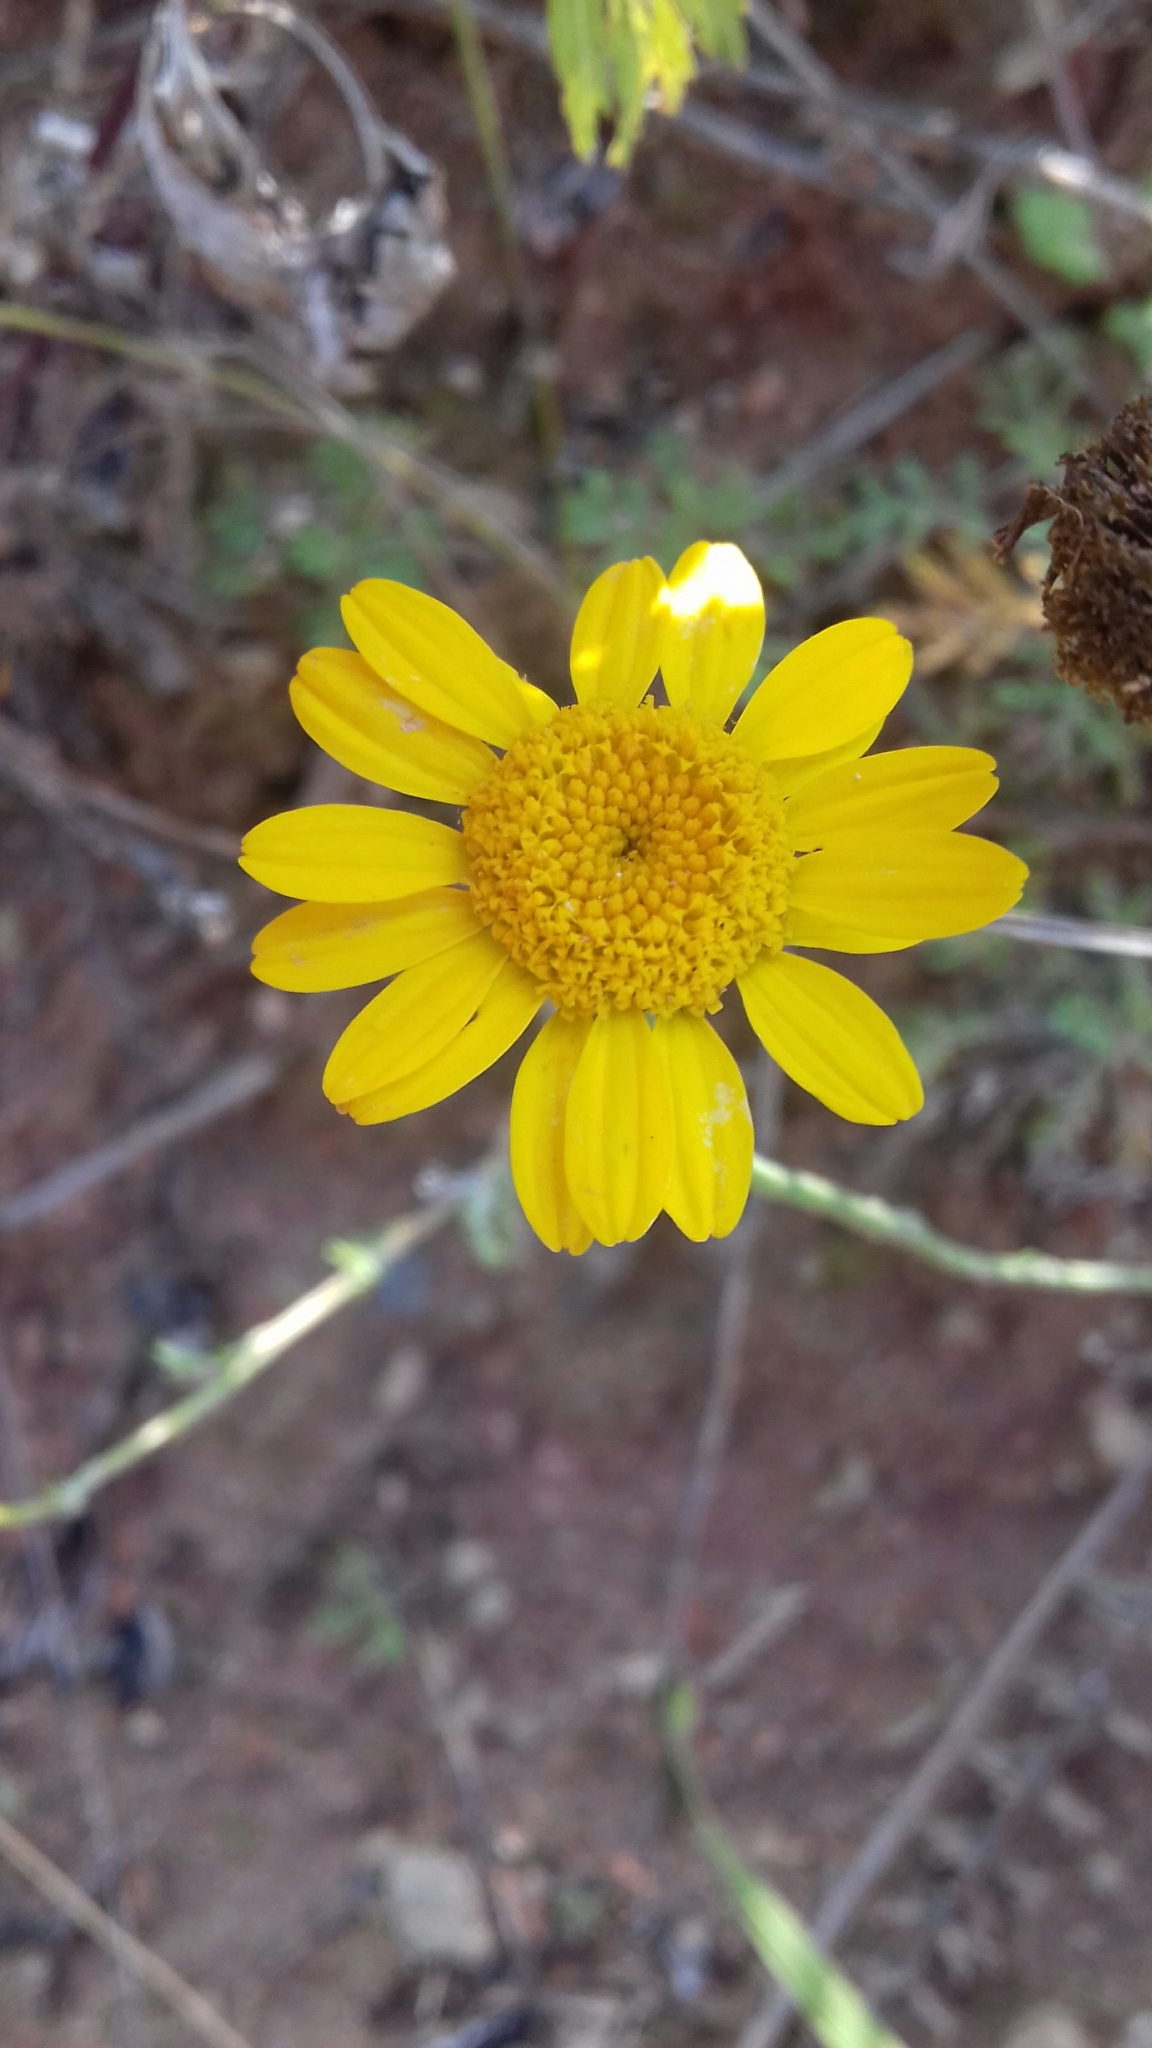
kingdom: Plantae
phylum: Tracheophyta
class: Magnoliopsida
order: Asterales
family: Asteraceae
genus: Cota
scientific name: Cota tinctoria
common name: Golden chamomile
